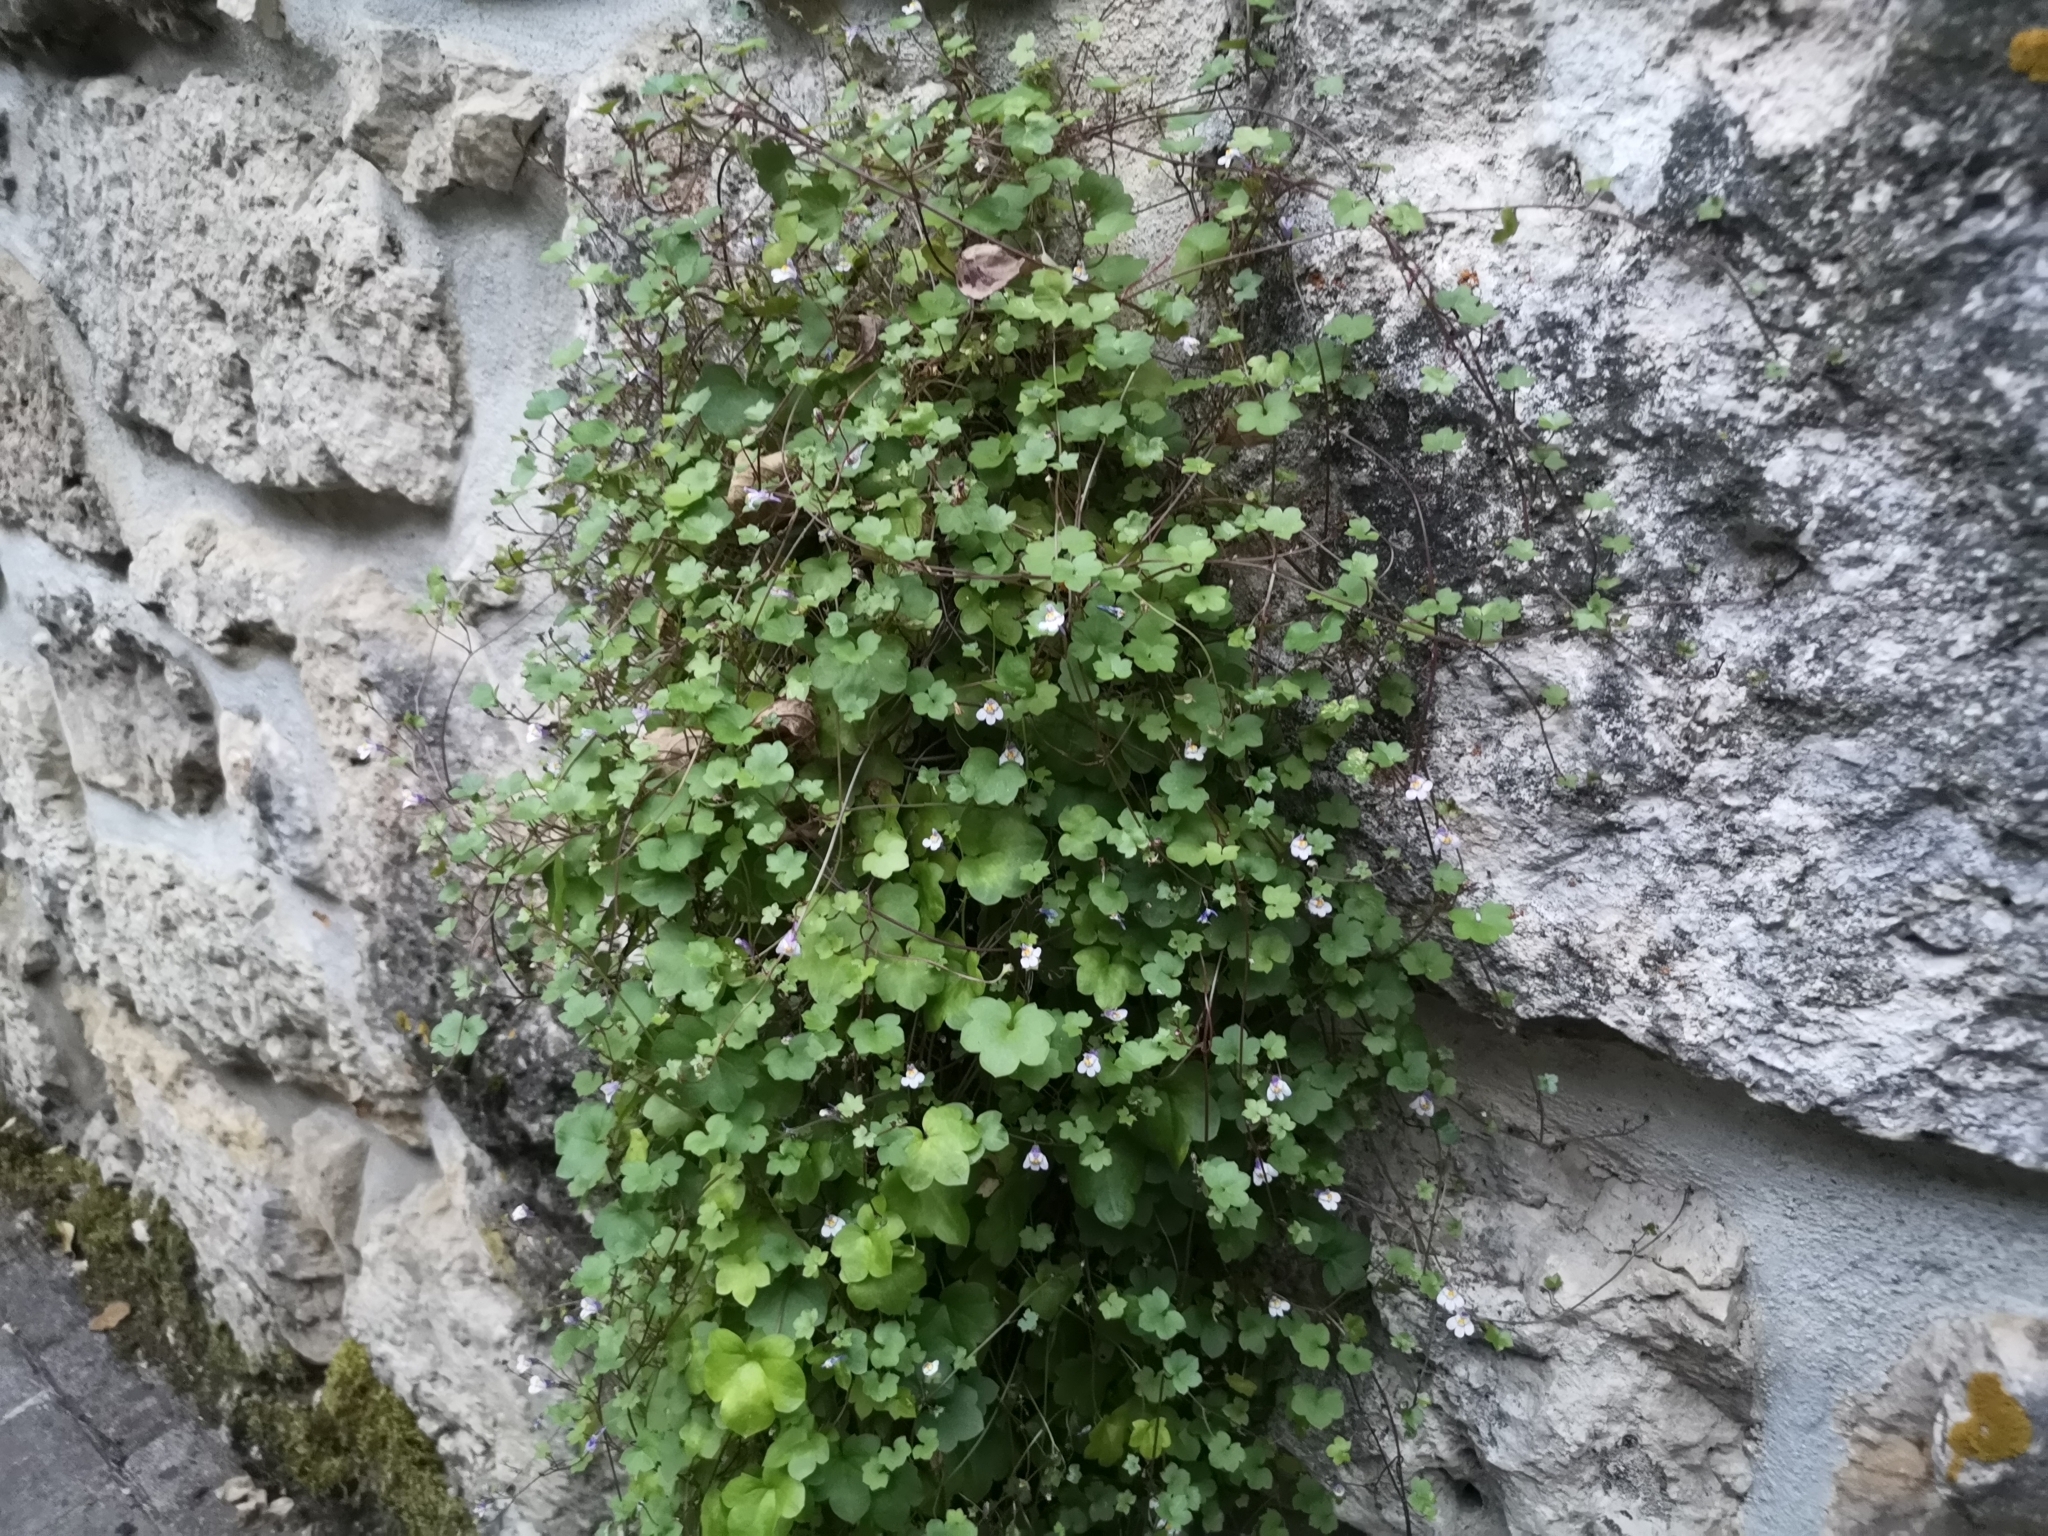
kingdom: Plantae
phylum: Tracheophyta
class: Magnoliopsida
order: Lamiales
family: Plantaginaceae
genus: Cymbalaria
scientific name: Cymbalaria muralis
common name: Ivy-leaved toadflax
